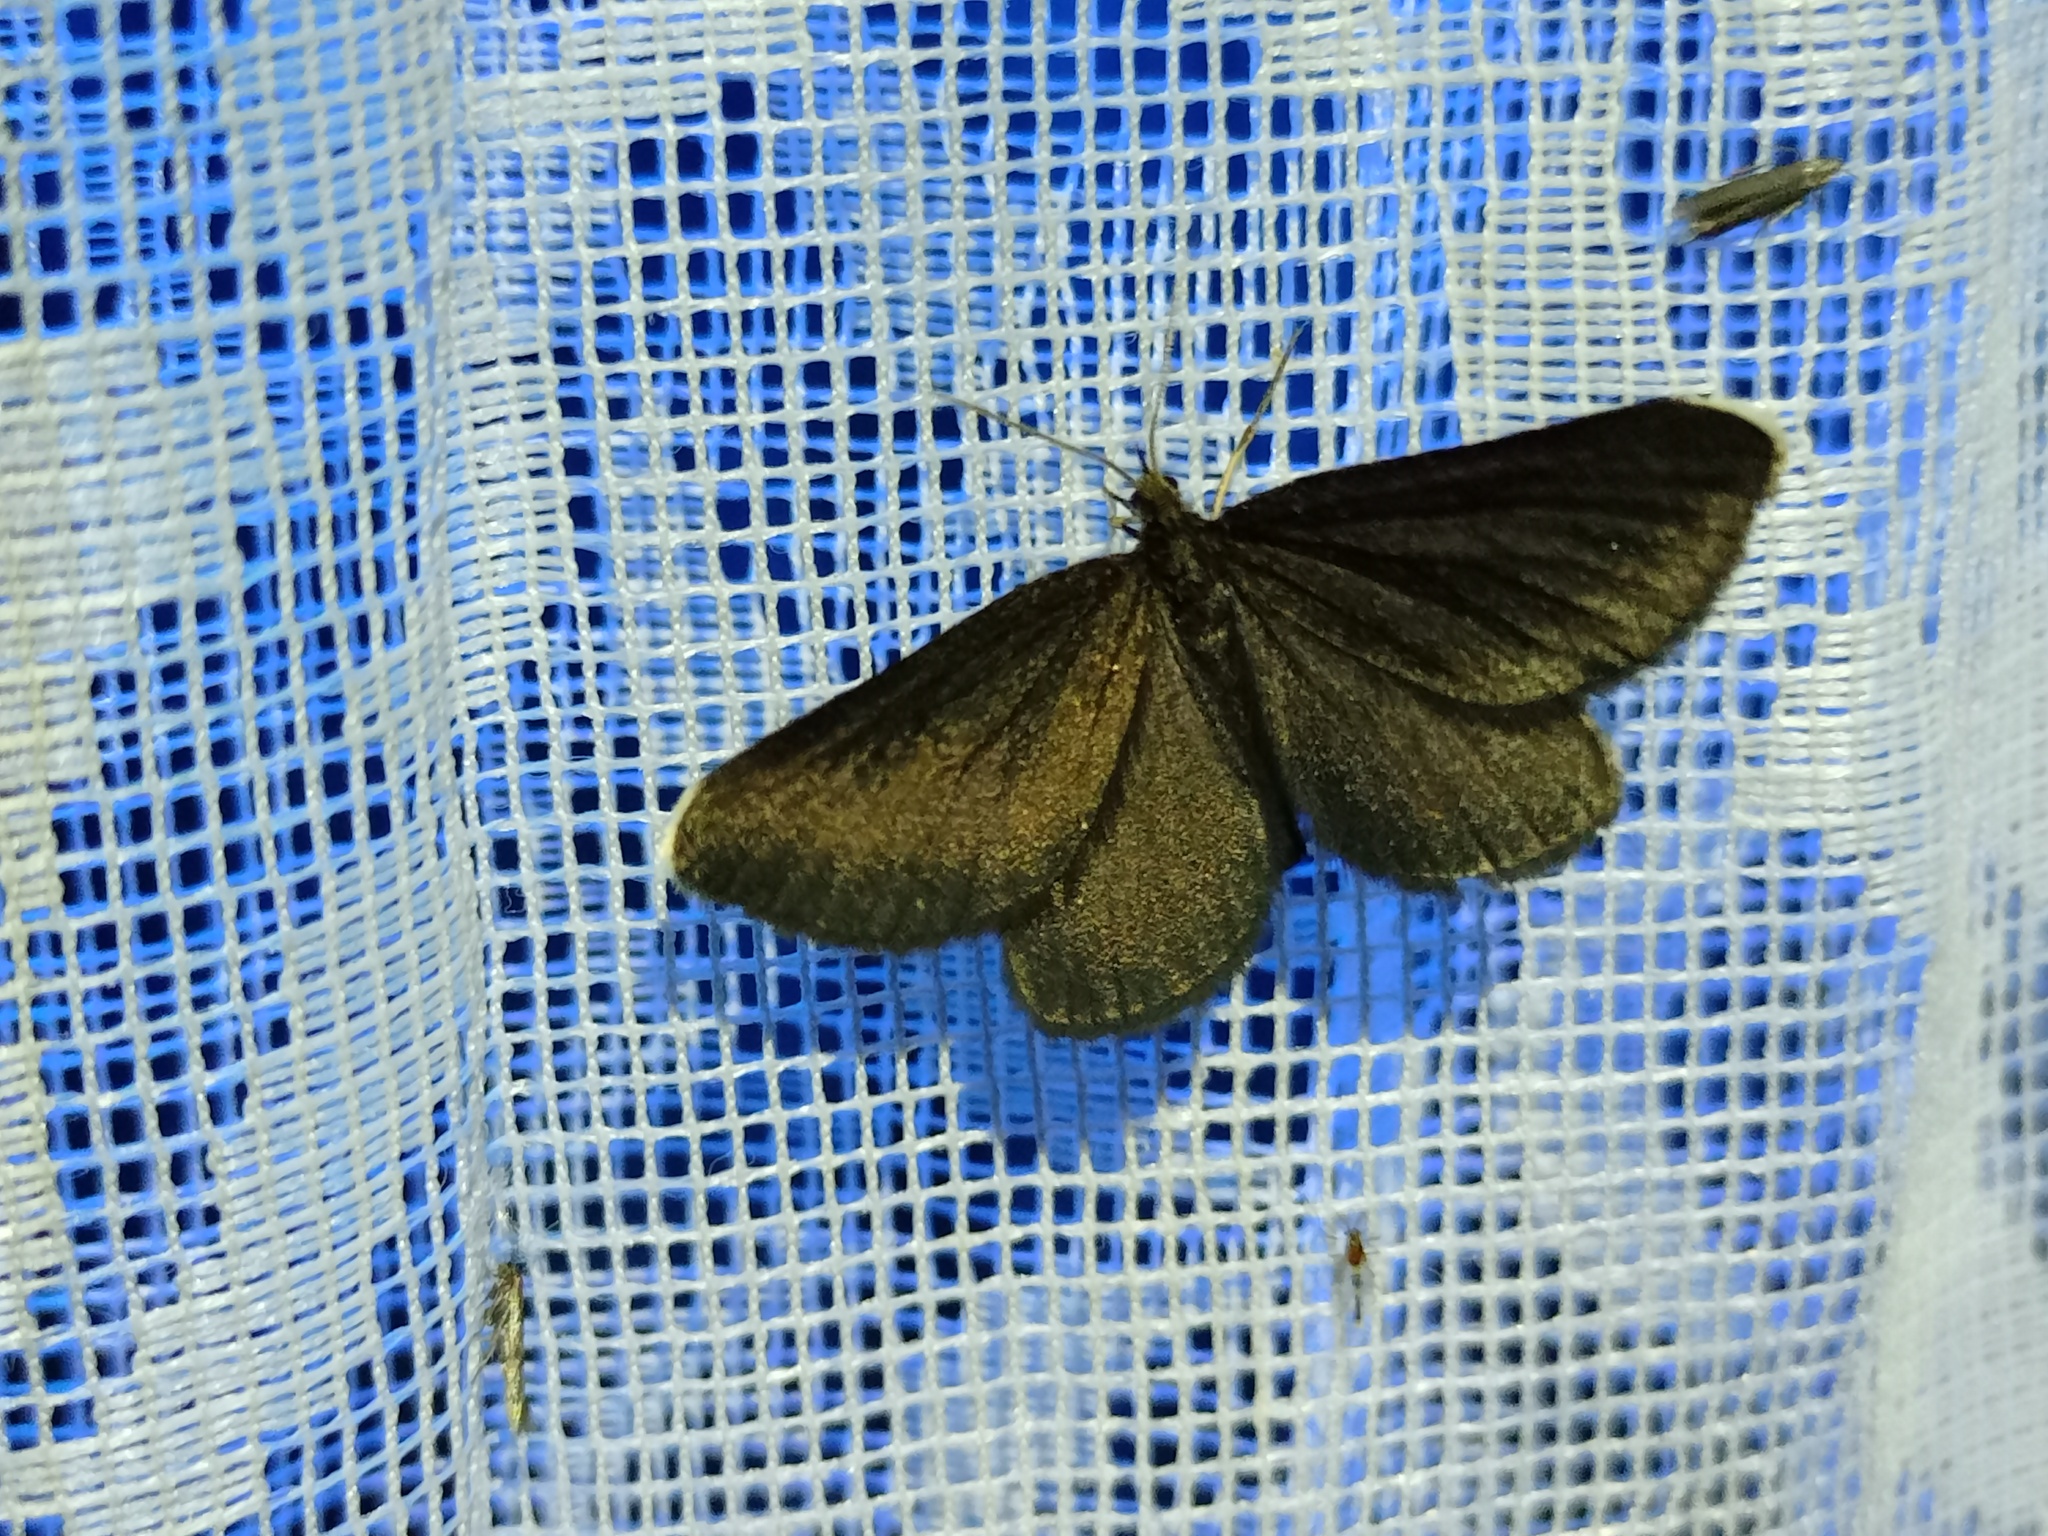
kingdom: Animalia
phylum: Arthropoda
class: Insecta
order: Lepidoptera
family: Geometridae
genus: Odezia
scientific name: Odezia atrata
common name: Chimney sweeper
